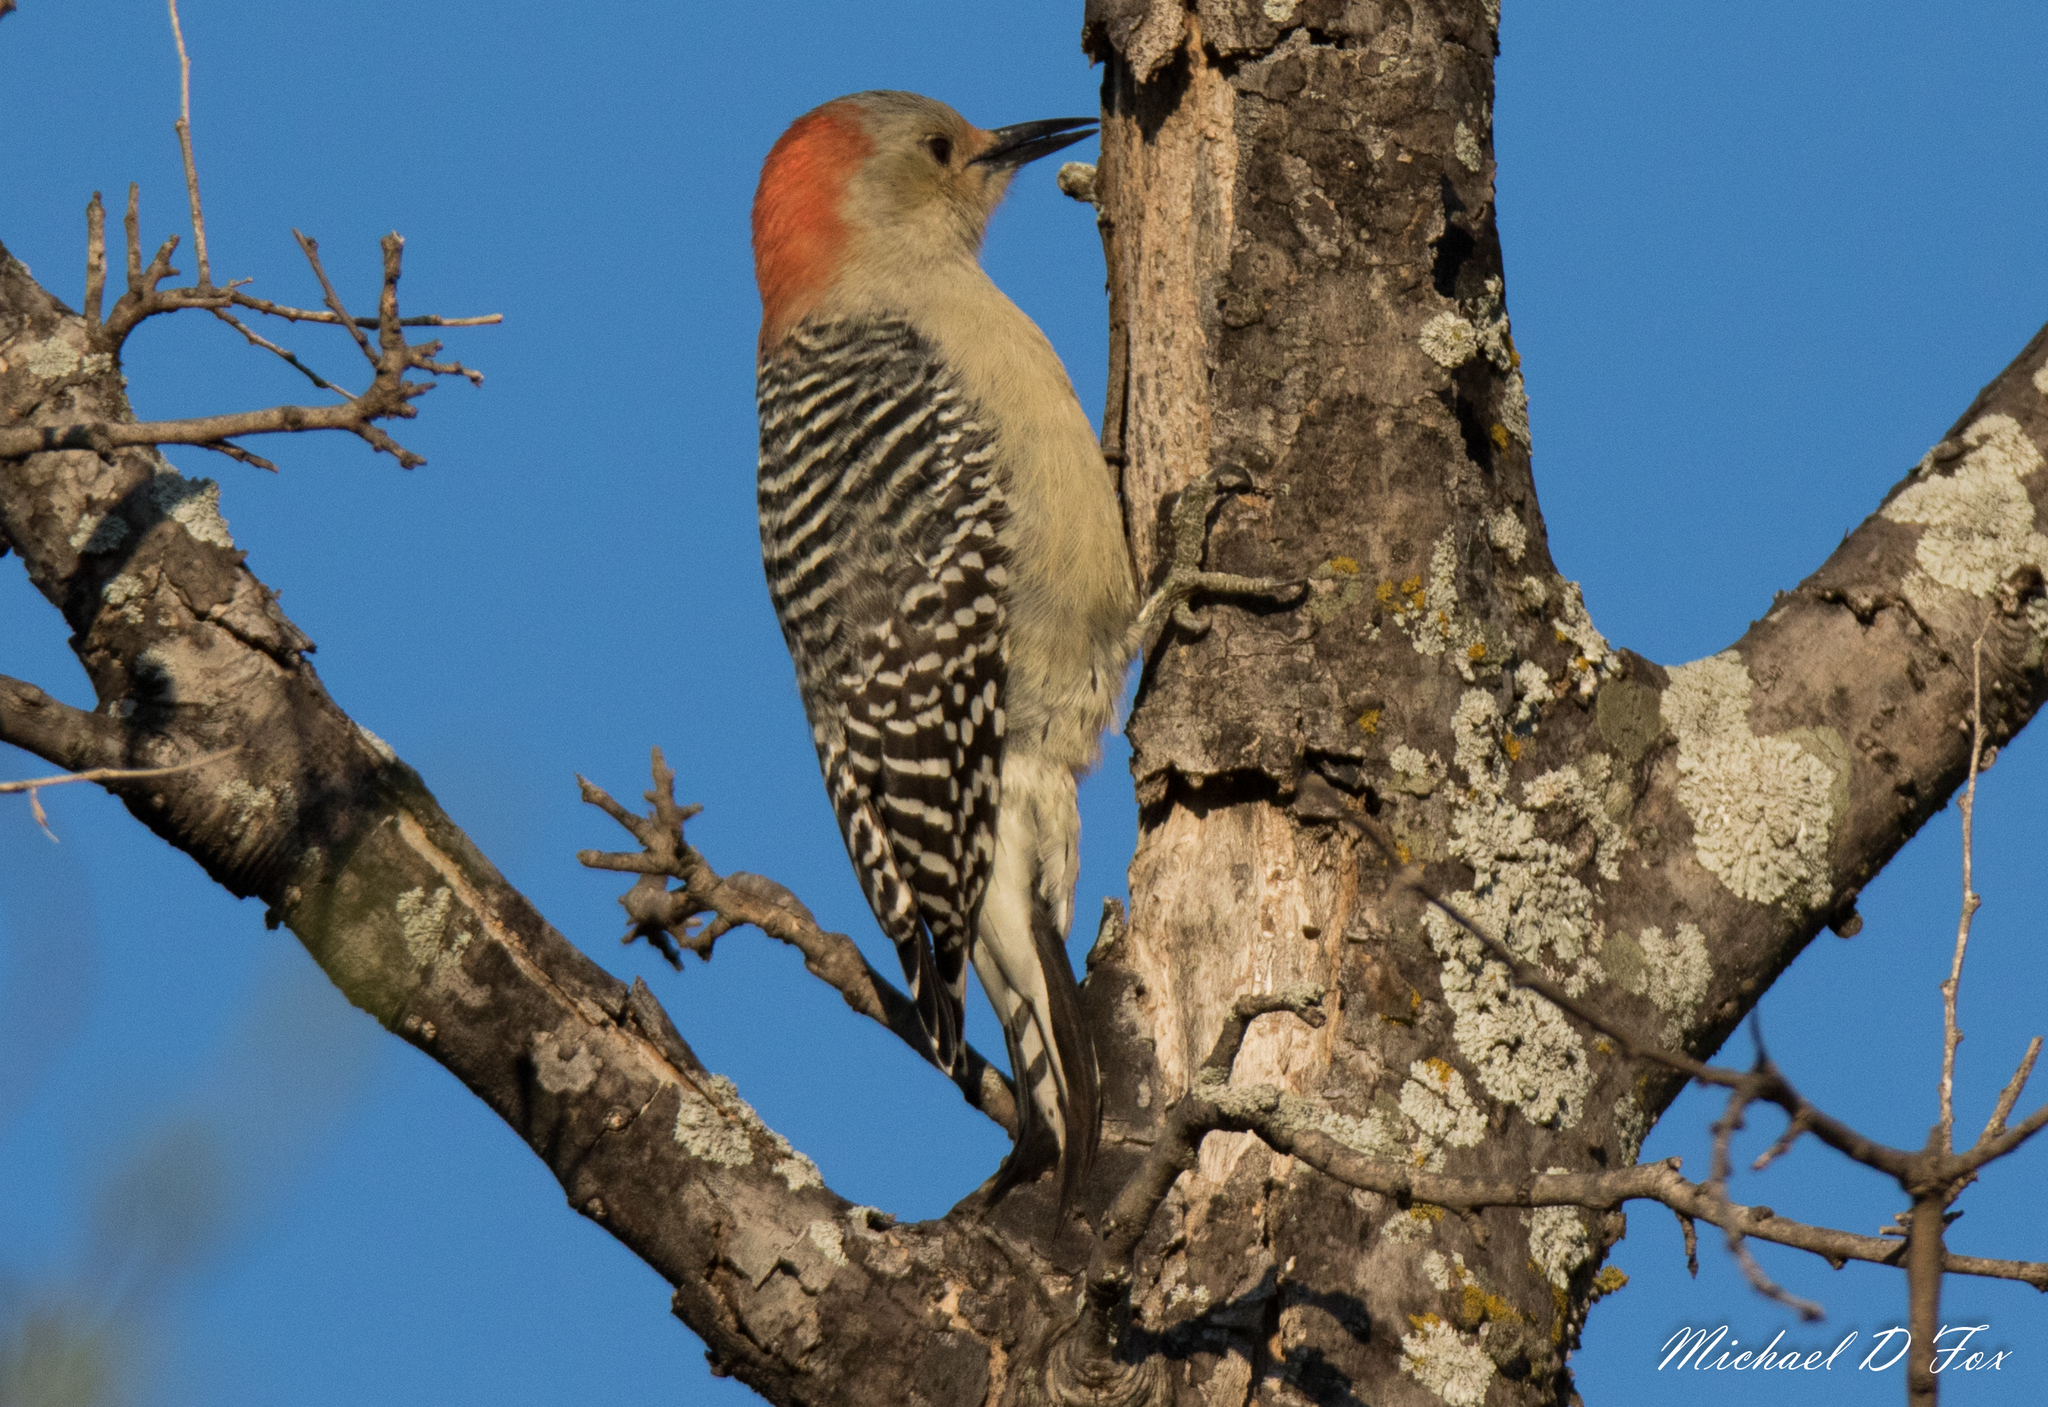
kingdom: Animalia
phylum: Chordata
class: Aves
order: Piciformes
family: Picidae
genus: Melanerpes
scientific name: Melanerpes carolinus
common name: Red-bellied woodpecker
